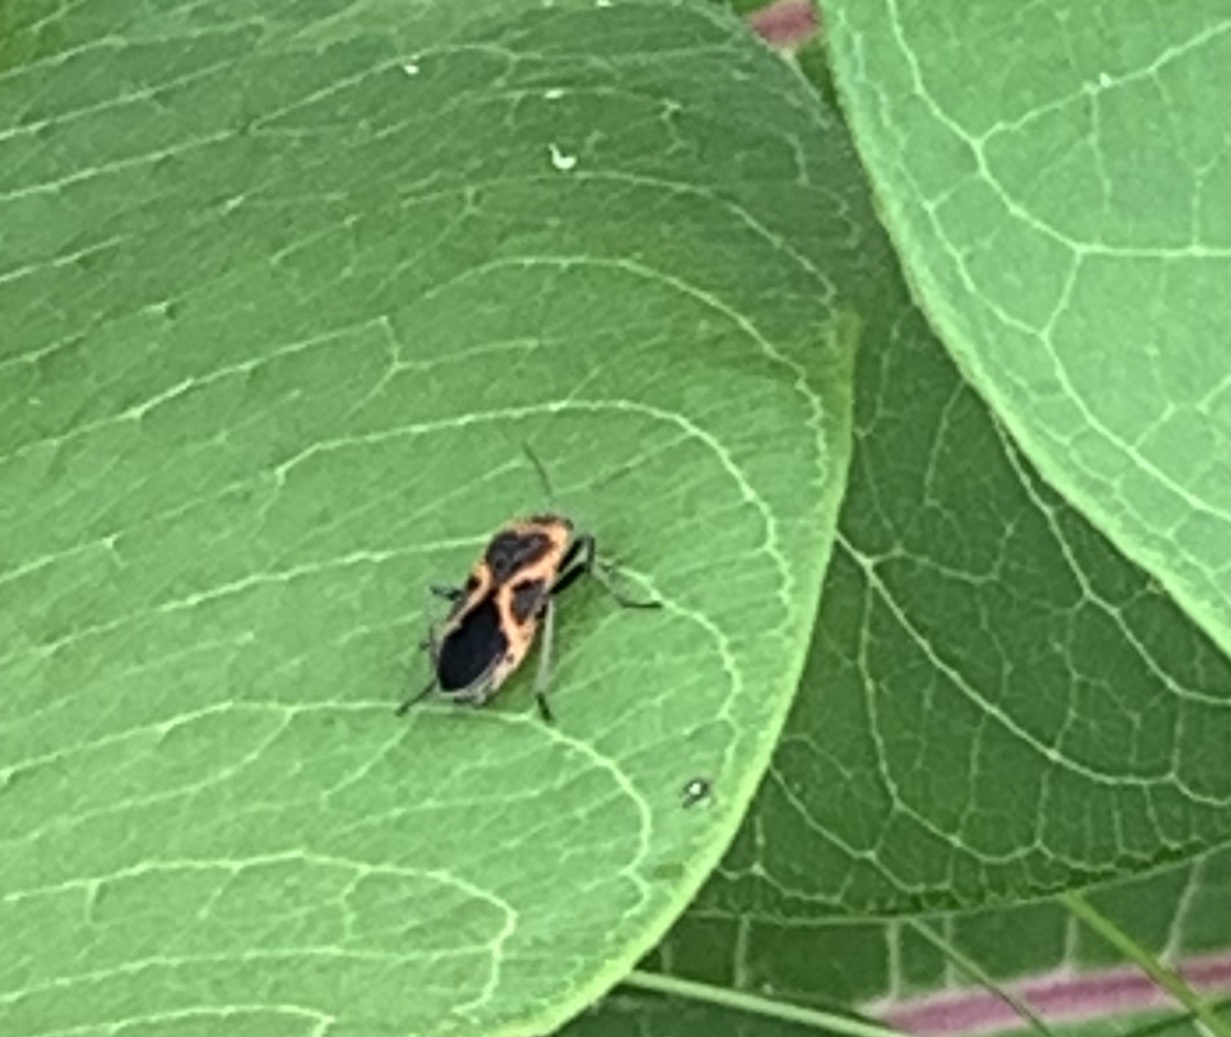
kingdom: Animalia
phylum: Arthropoda
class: Insecta
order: Hemiptera
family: Lygaeidae
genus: Lygaeus
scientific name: Lygaeus kalmii
